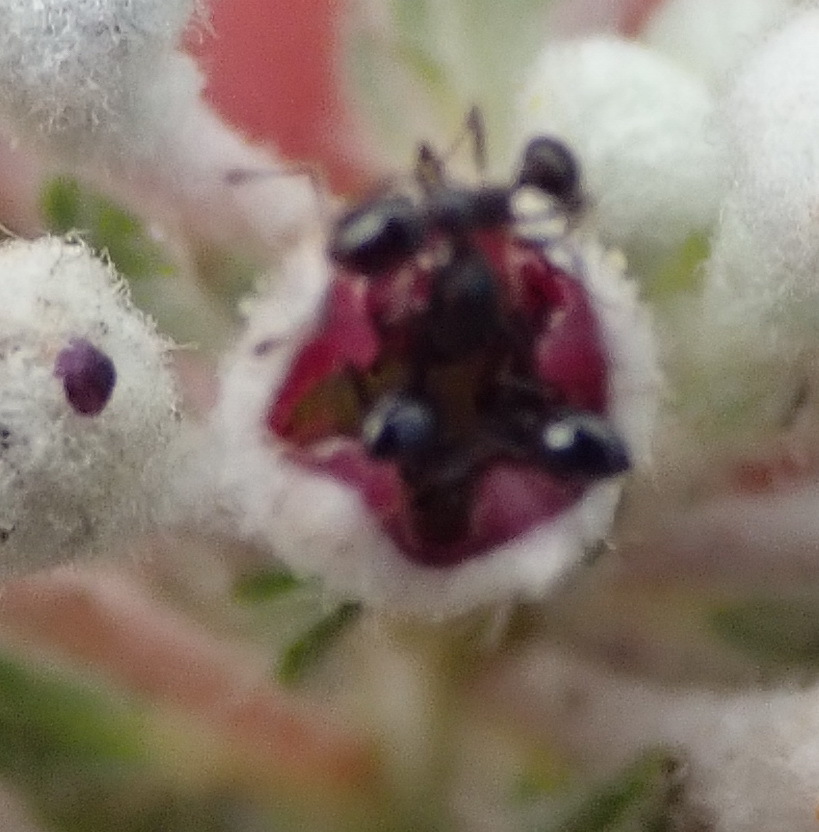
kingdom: Animalia
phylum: Arthropoda
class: Insecta
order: Hymenoptera
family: Formicidae
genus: Monomorium
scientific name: Monomorium excelsior
